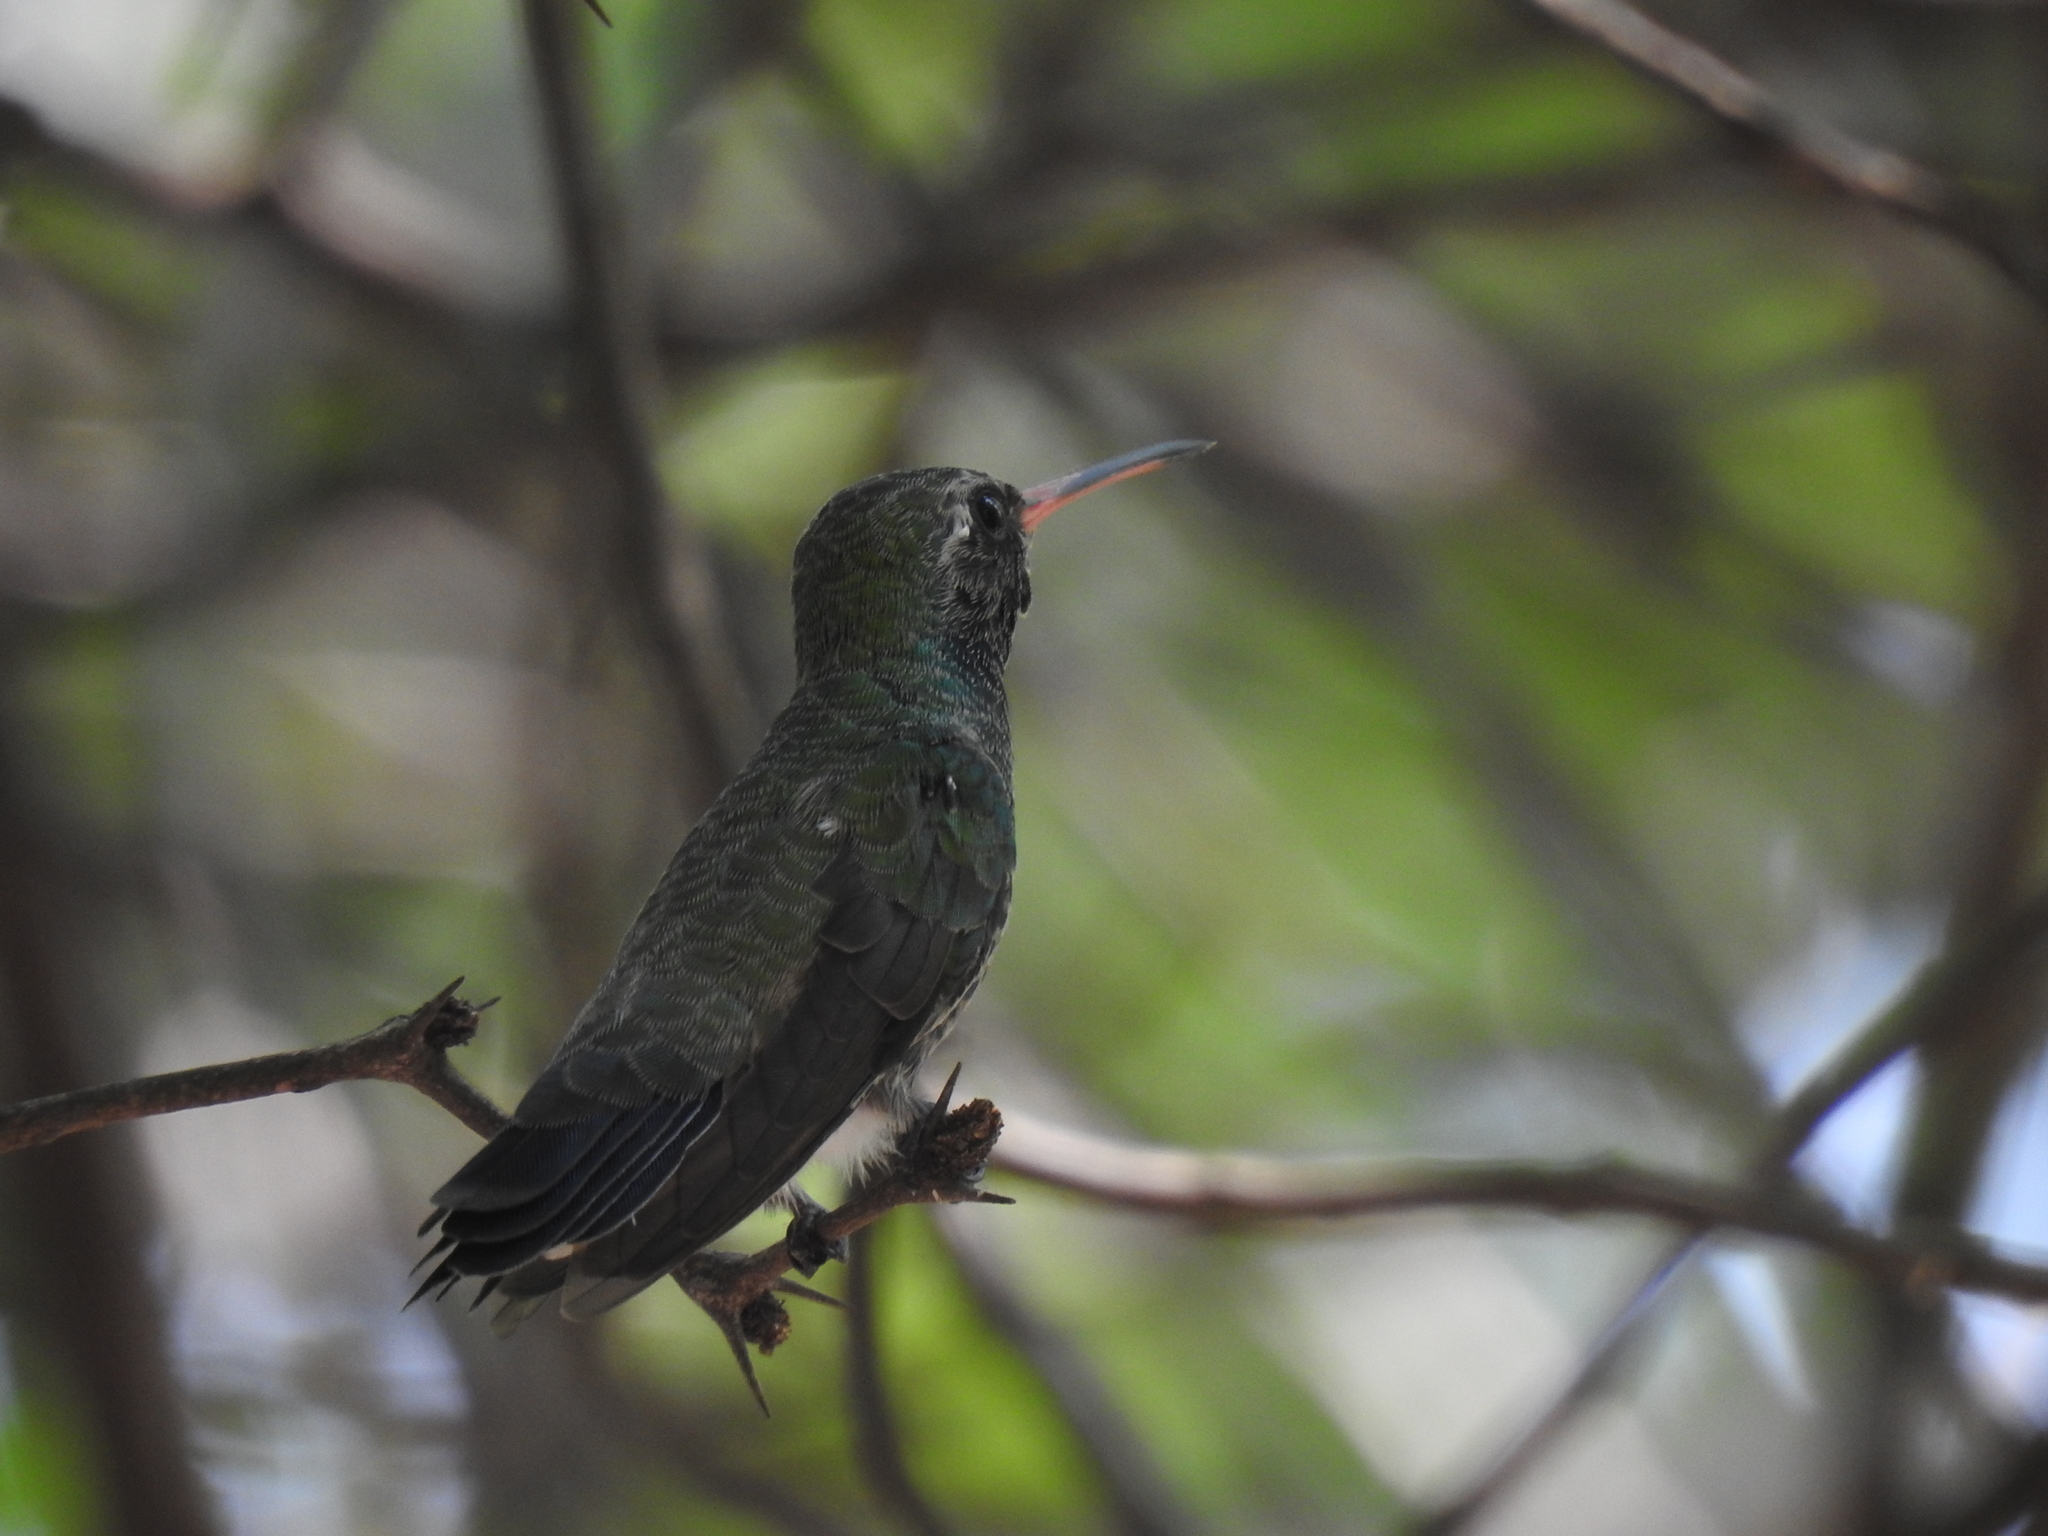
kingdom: Animalia
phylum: Chordata
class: Aves
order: Apodiformes
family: Trochilidae
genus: Cynanthus
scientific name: Cynanthus latirostris
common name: Broad-billed hummingbird
